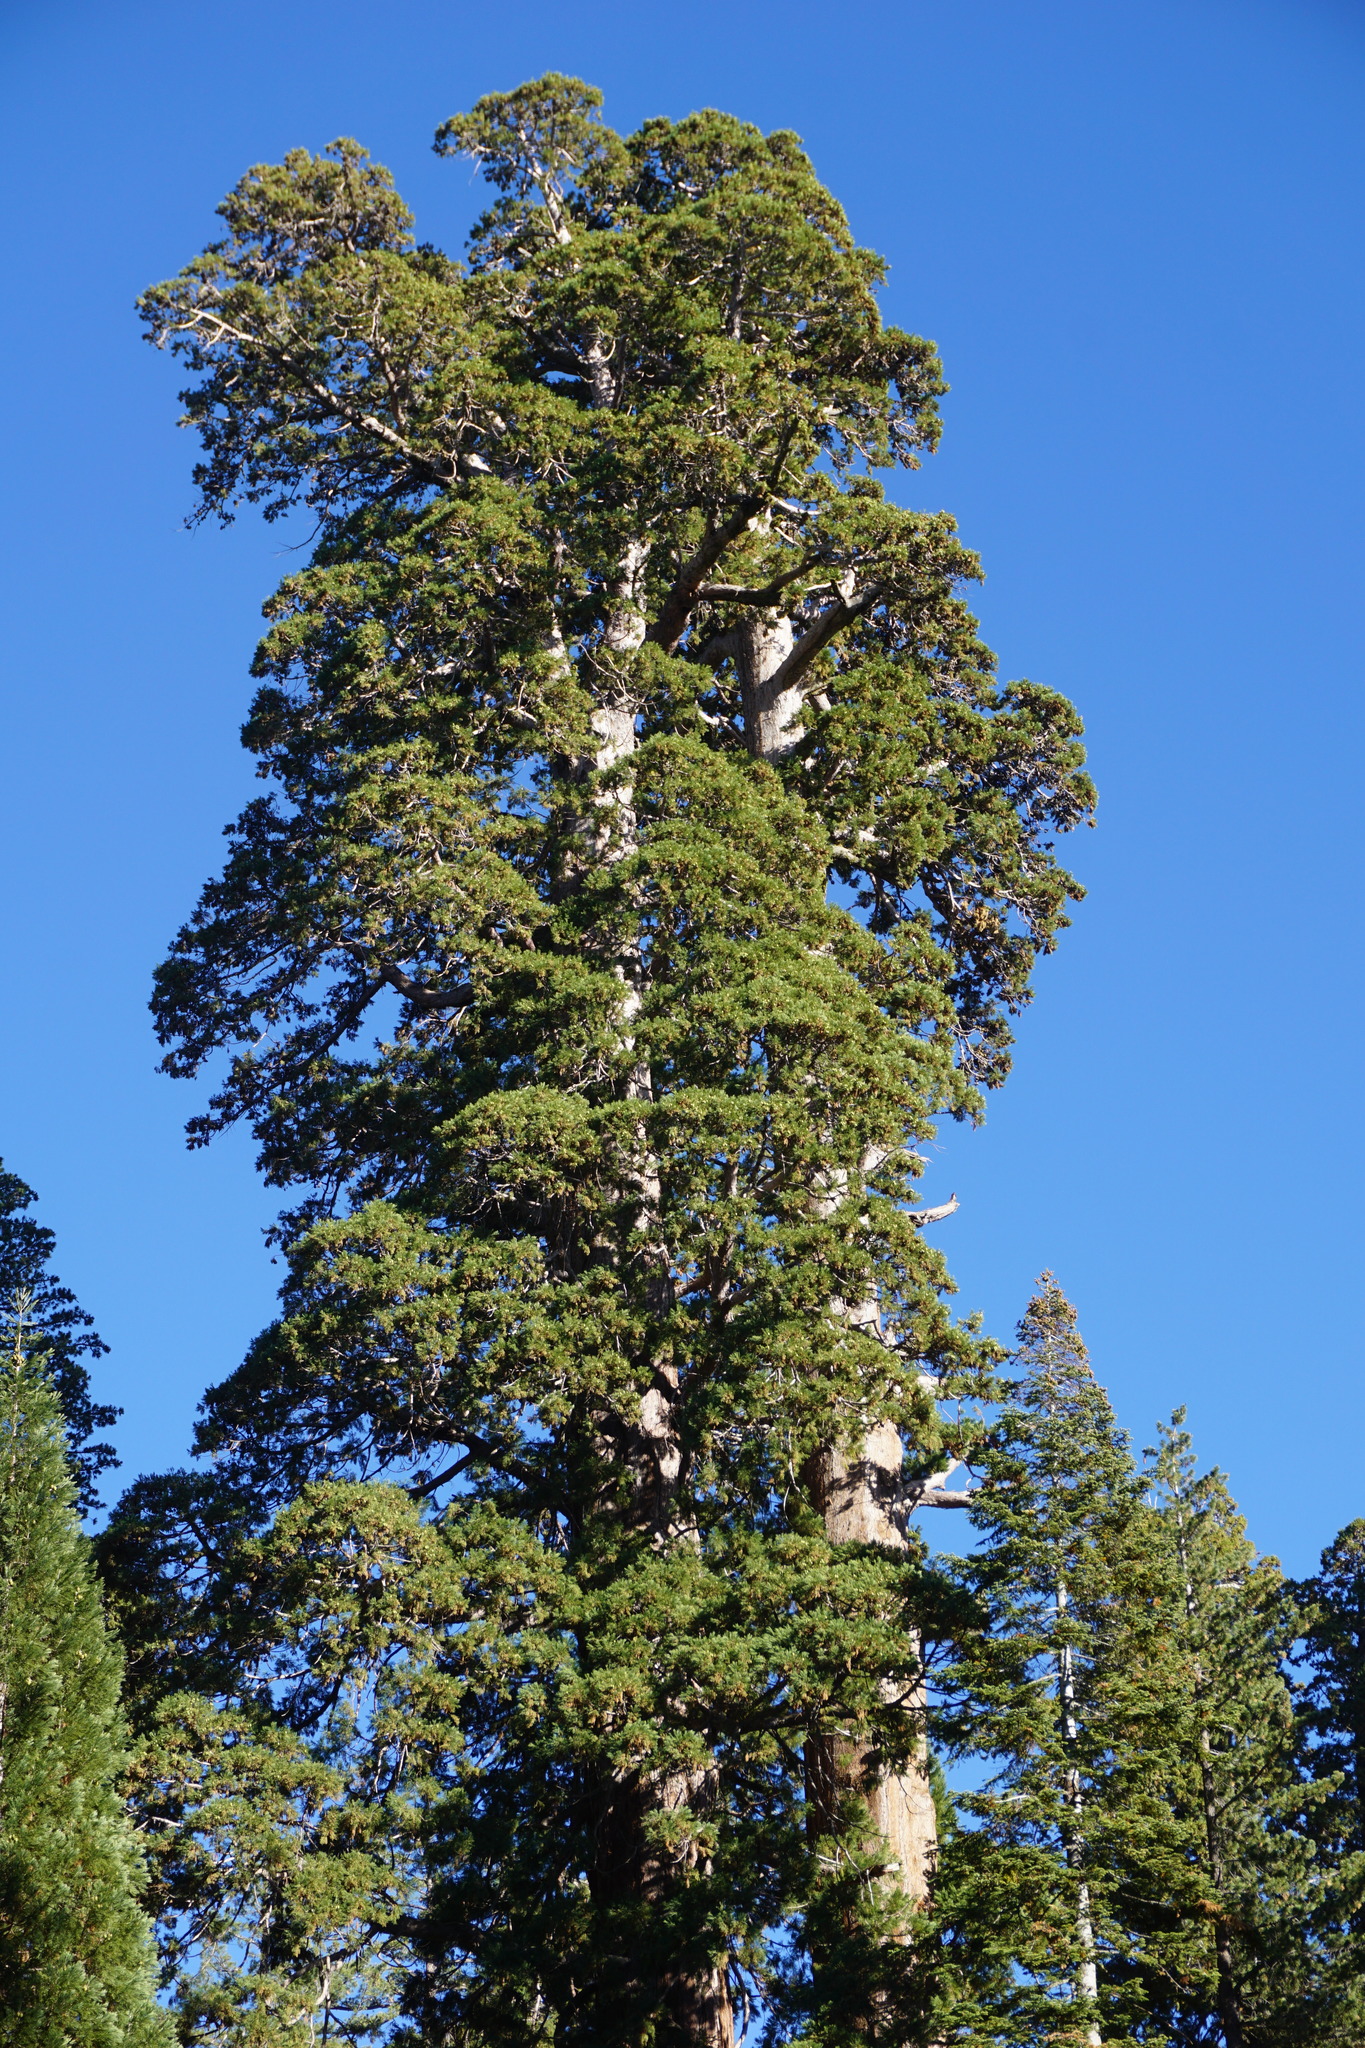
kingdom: Plantae
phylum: Tracheophyta
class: Pinopsida
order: Pinales
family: Cupressaceae
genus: Sequoiadendron
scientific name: Sequoiadendron giganteum
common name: Wellingtonia
